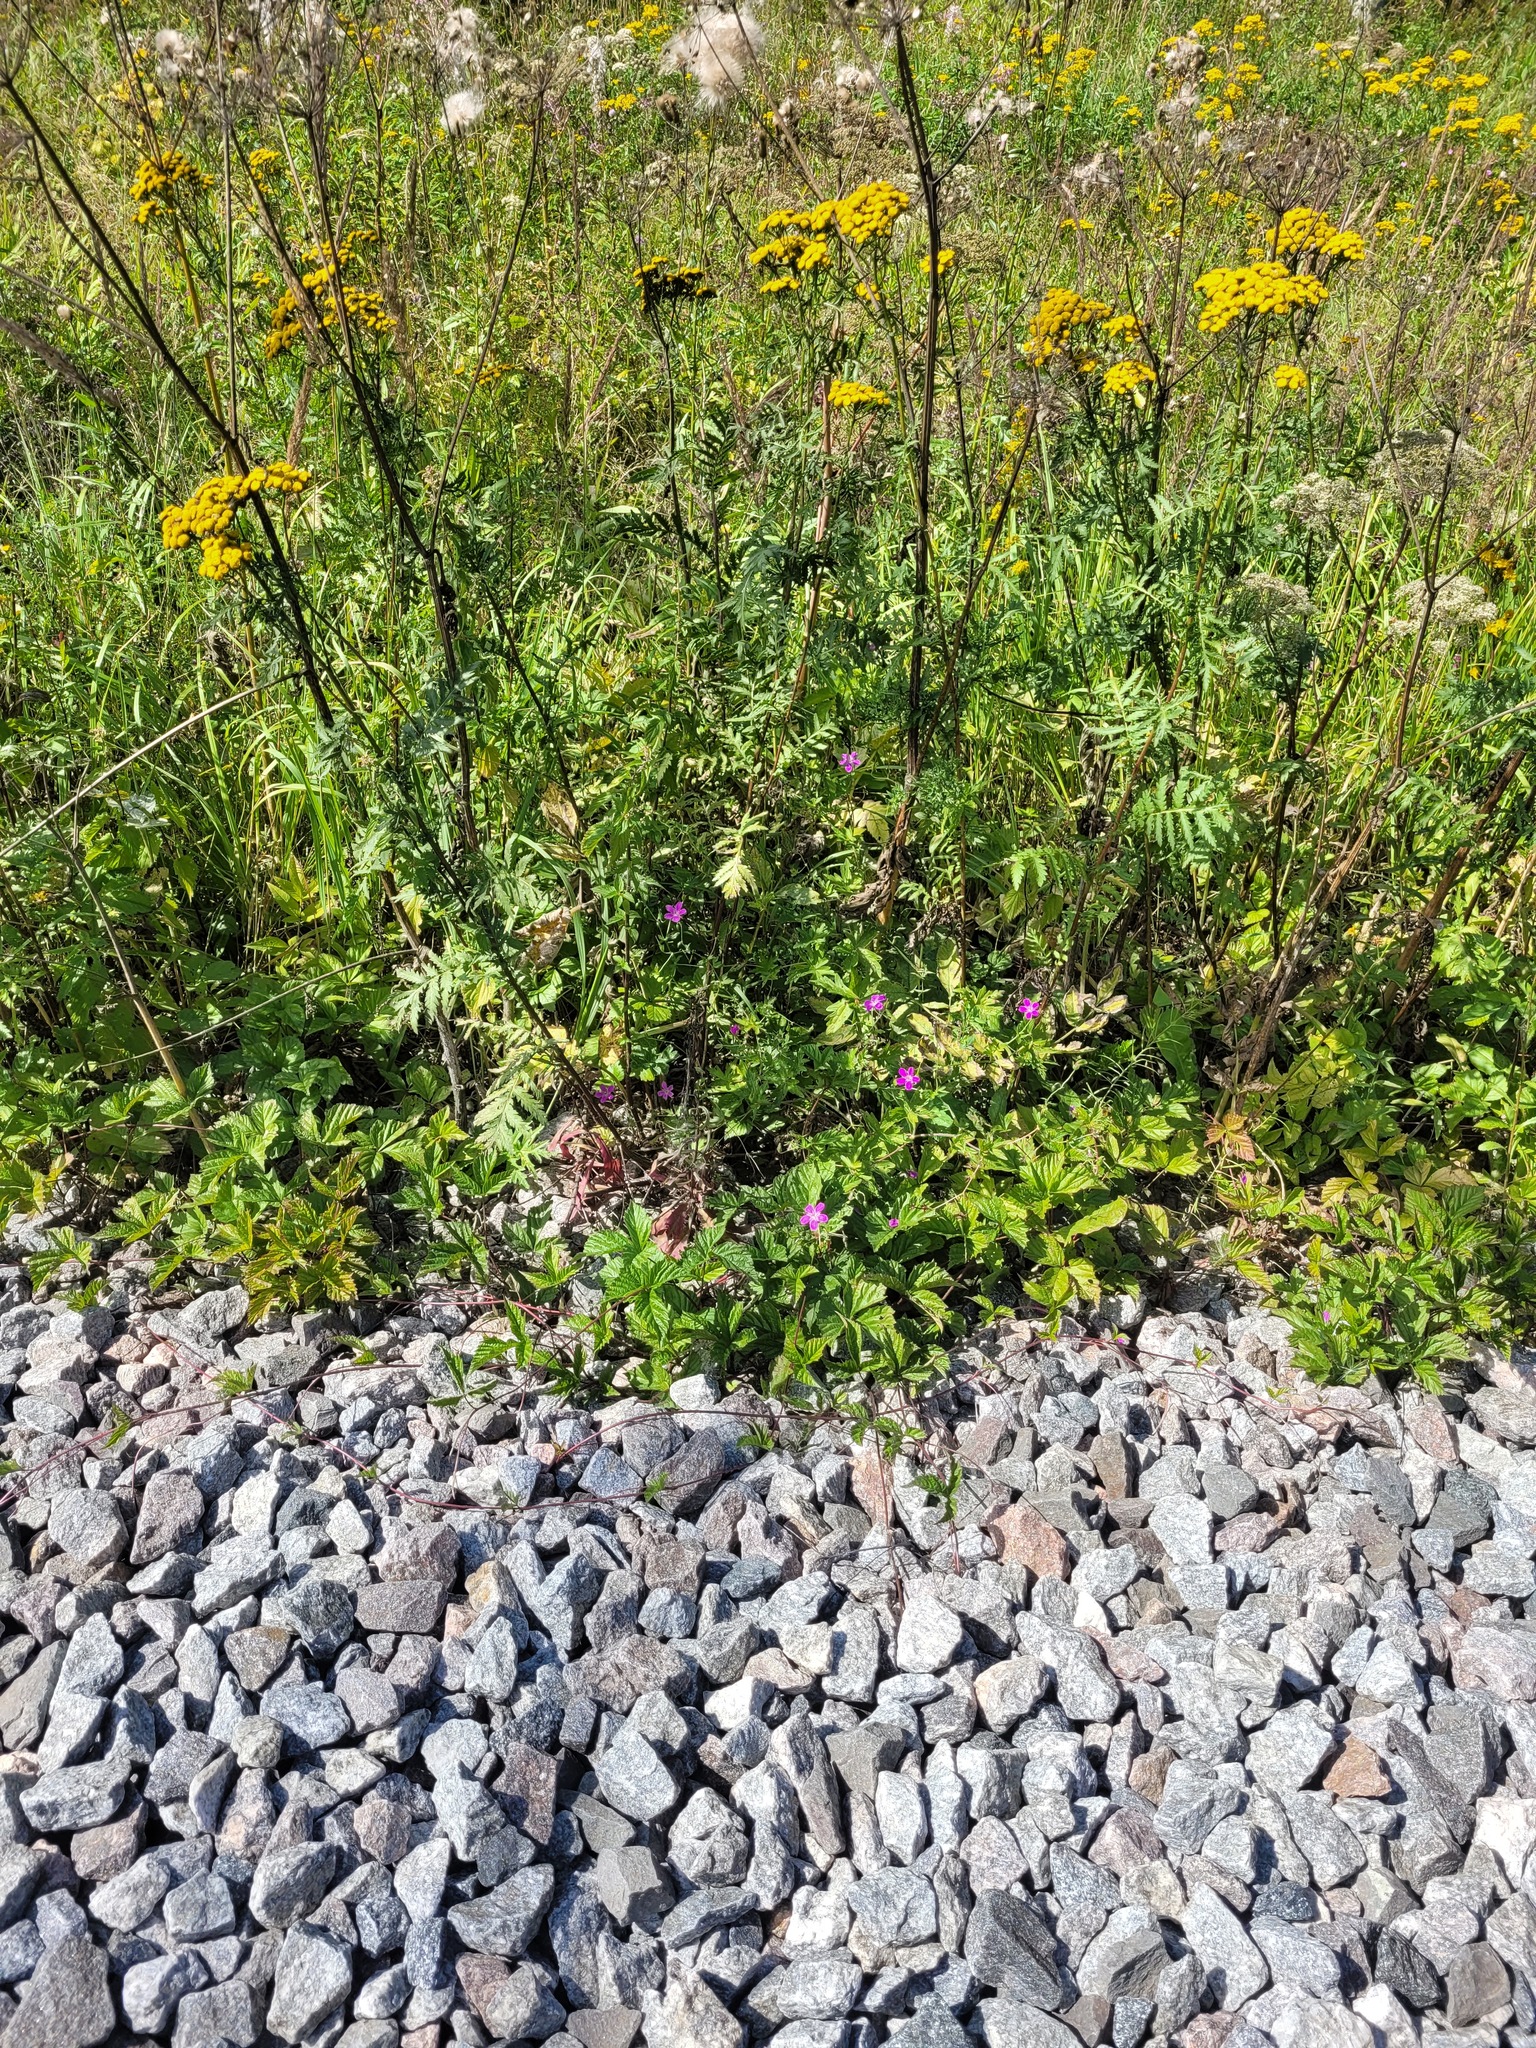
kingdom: Plantae
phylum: Tracheophyta
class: Magnoliopsida
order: Geraniales
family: Geraniaceae
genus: Geranium
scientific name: Geranium palustre
